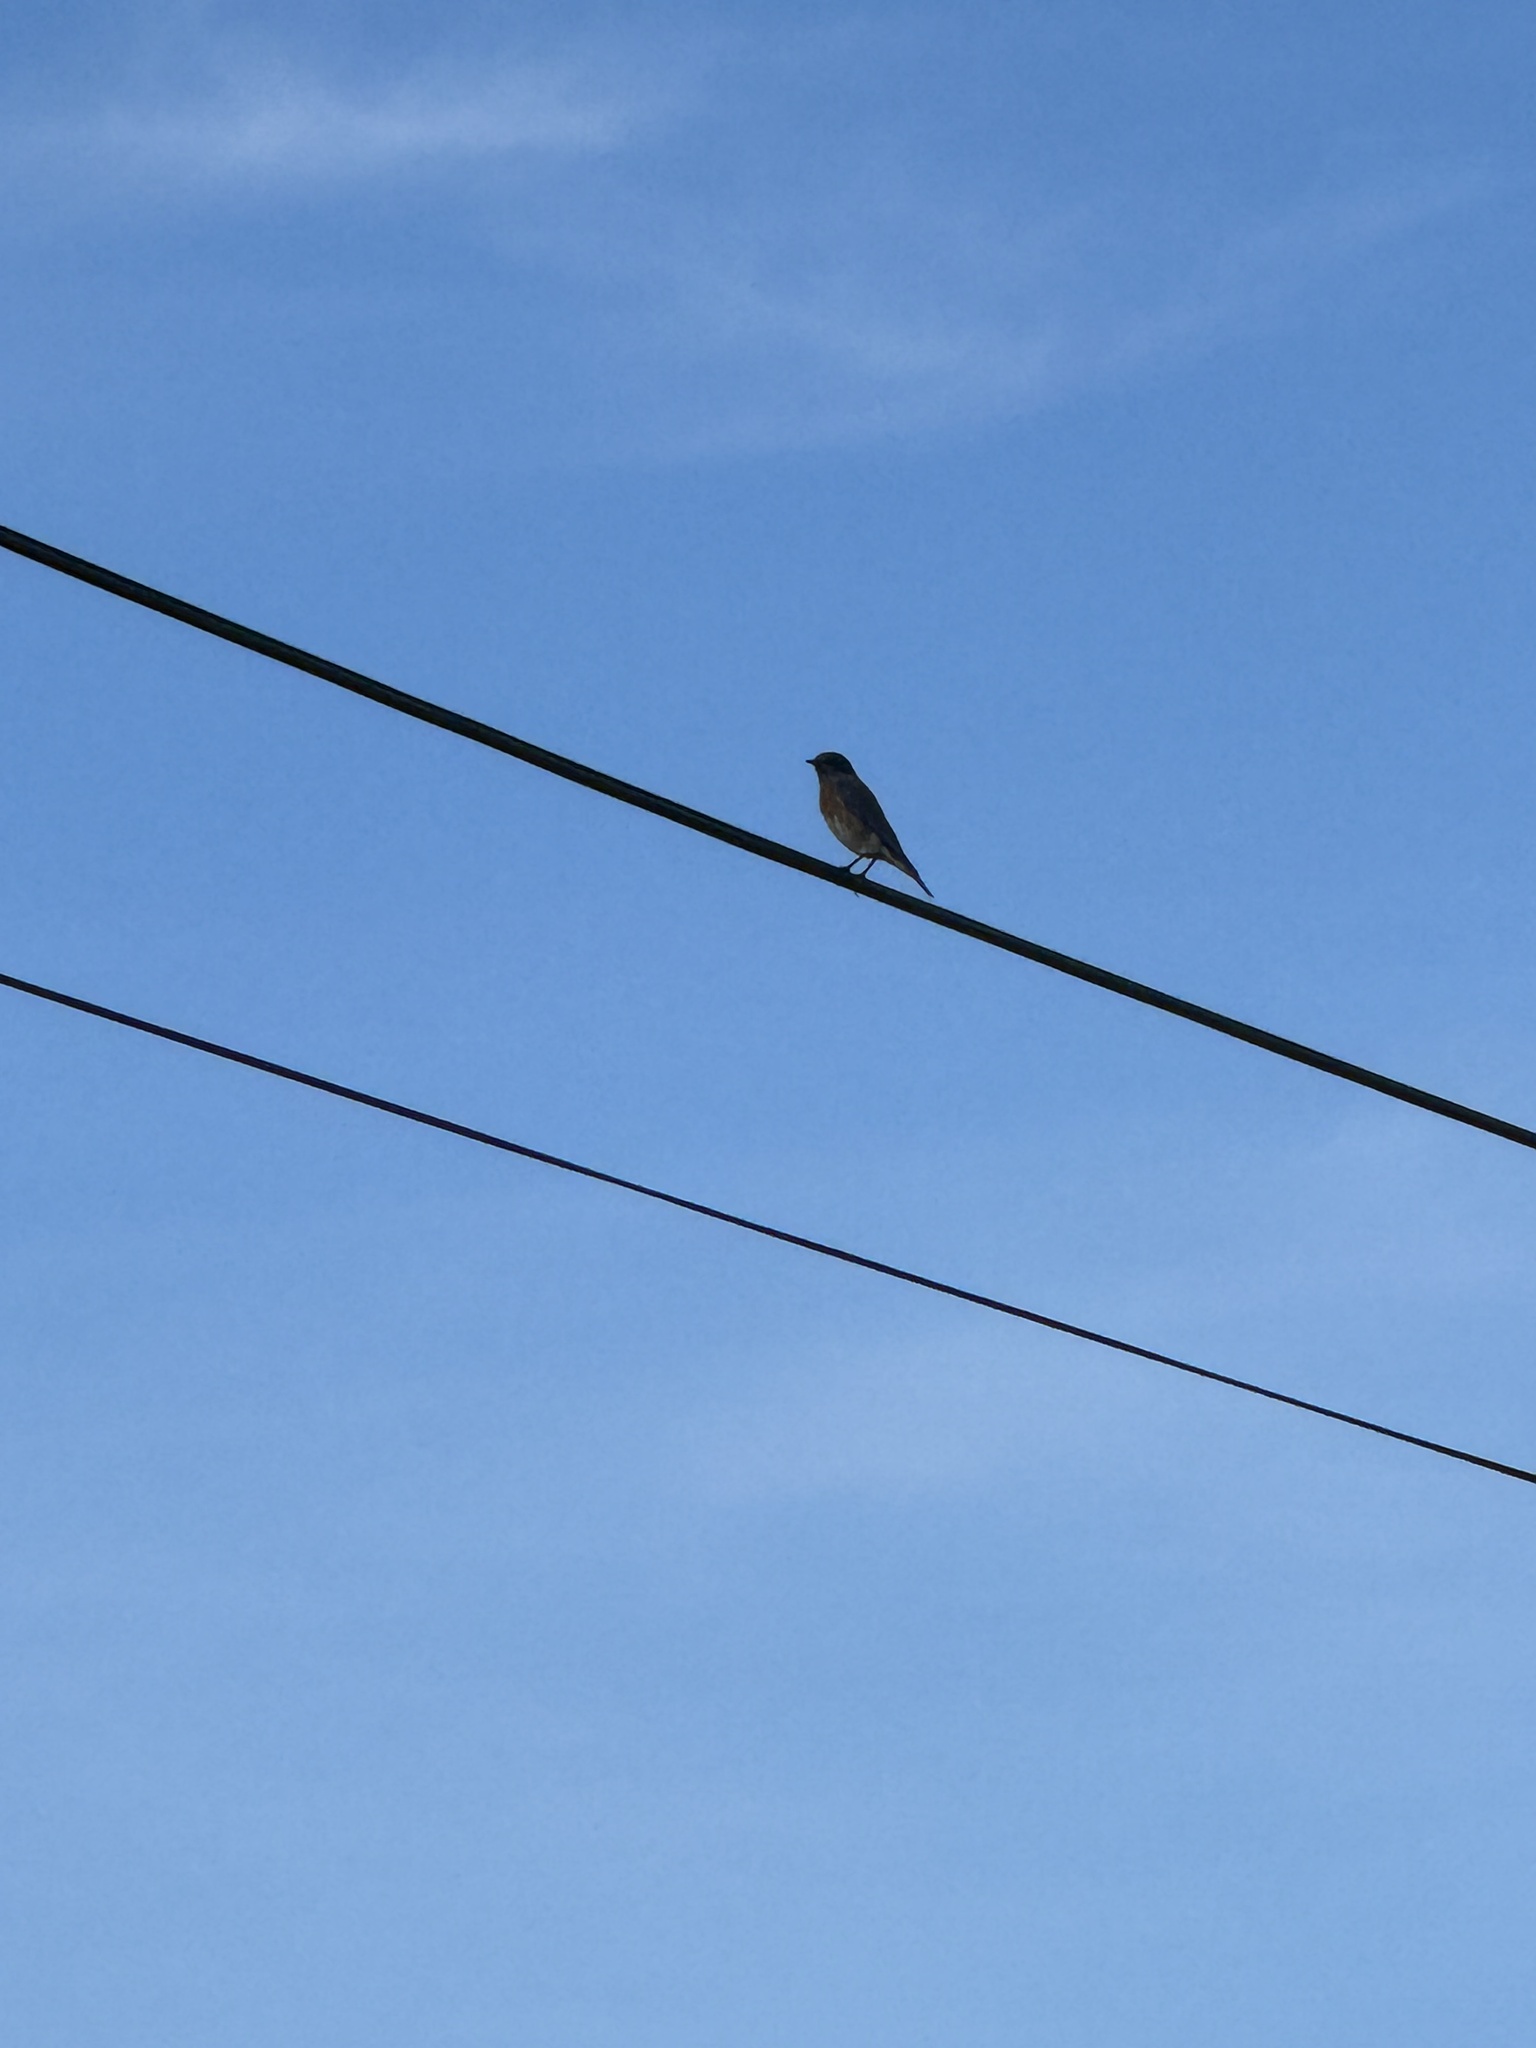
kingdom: Animalia
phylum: Chordata
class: Aves
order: Passeriformes
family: Turdidae
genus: Sialia
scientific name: Sialia mexicana
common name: Western bluebird
